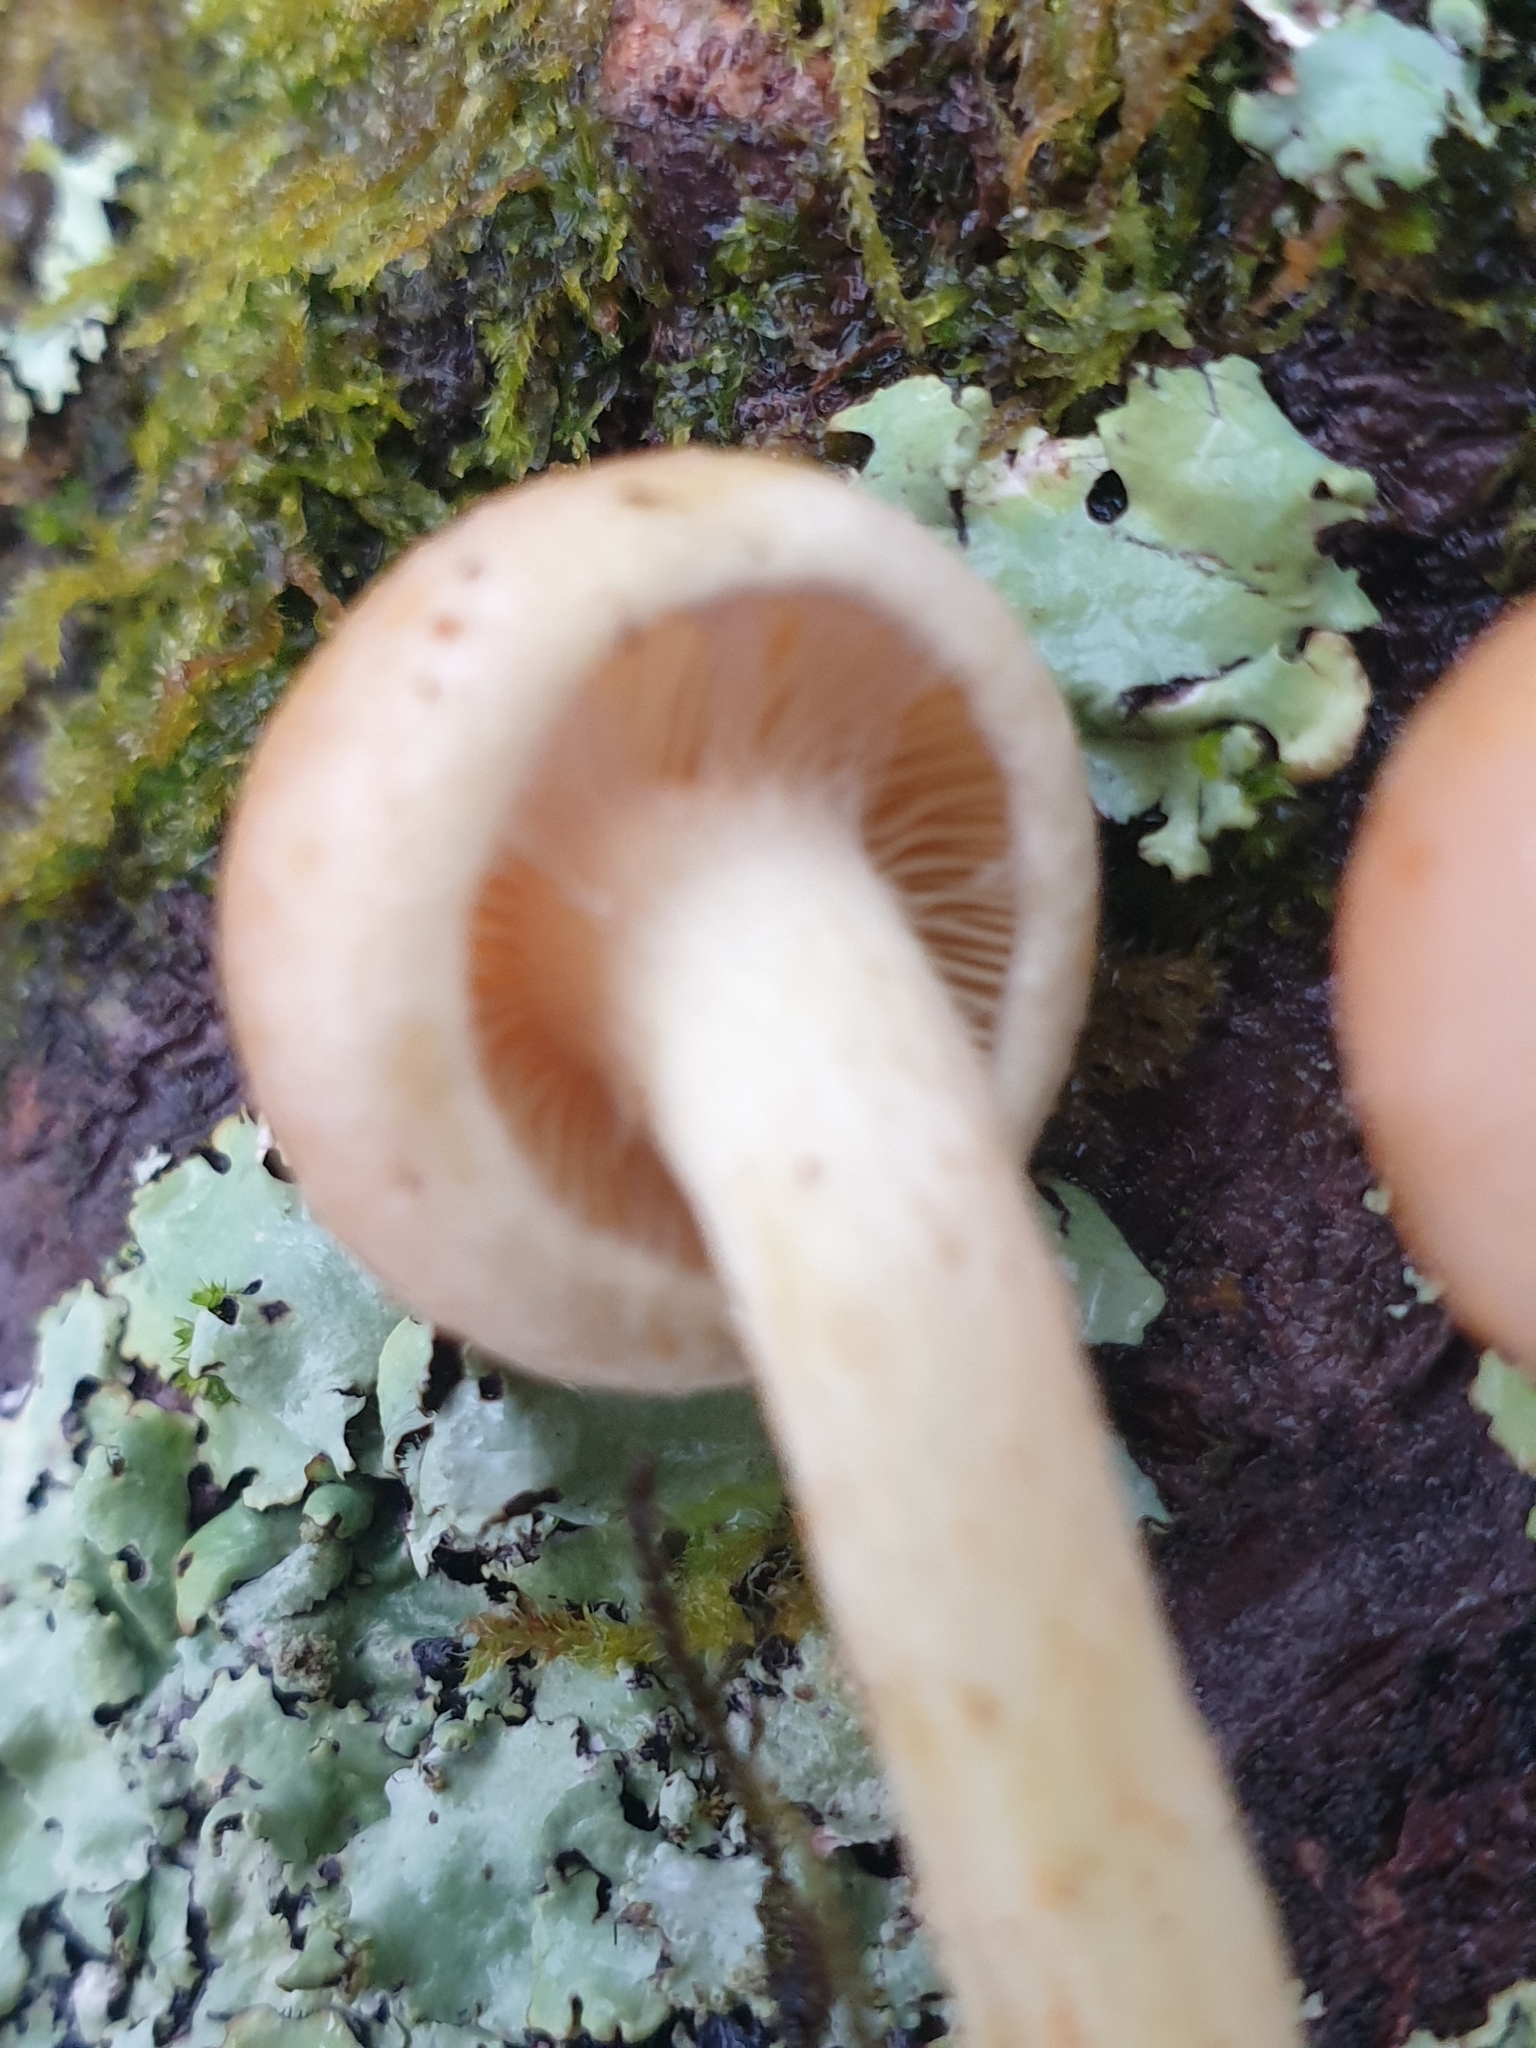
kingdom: Fungi
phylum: Basidiomycota
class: Agaricomycetes
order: Agaricales
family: Strophariaceae
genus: Hypholoma
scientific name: Hypholoma fasciculare
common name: Sulphur tuft
